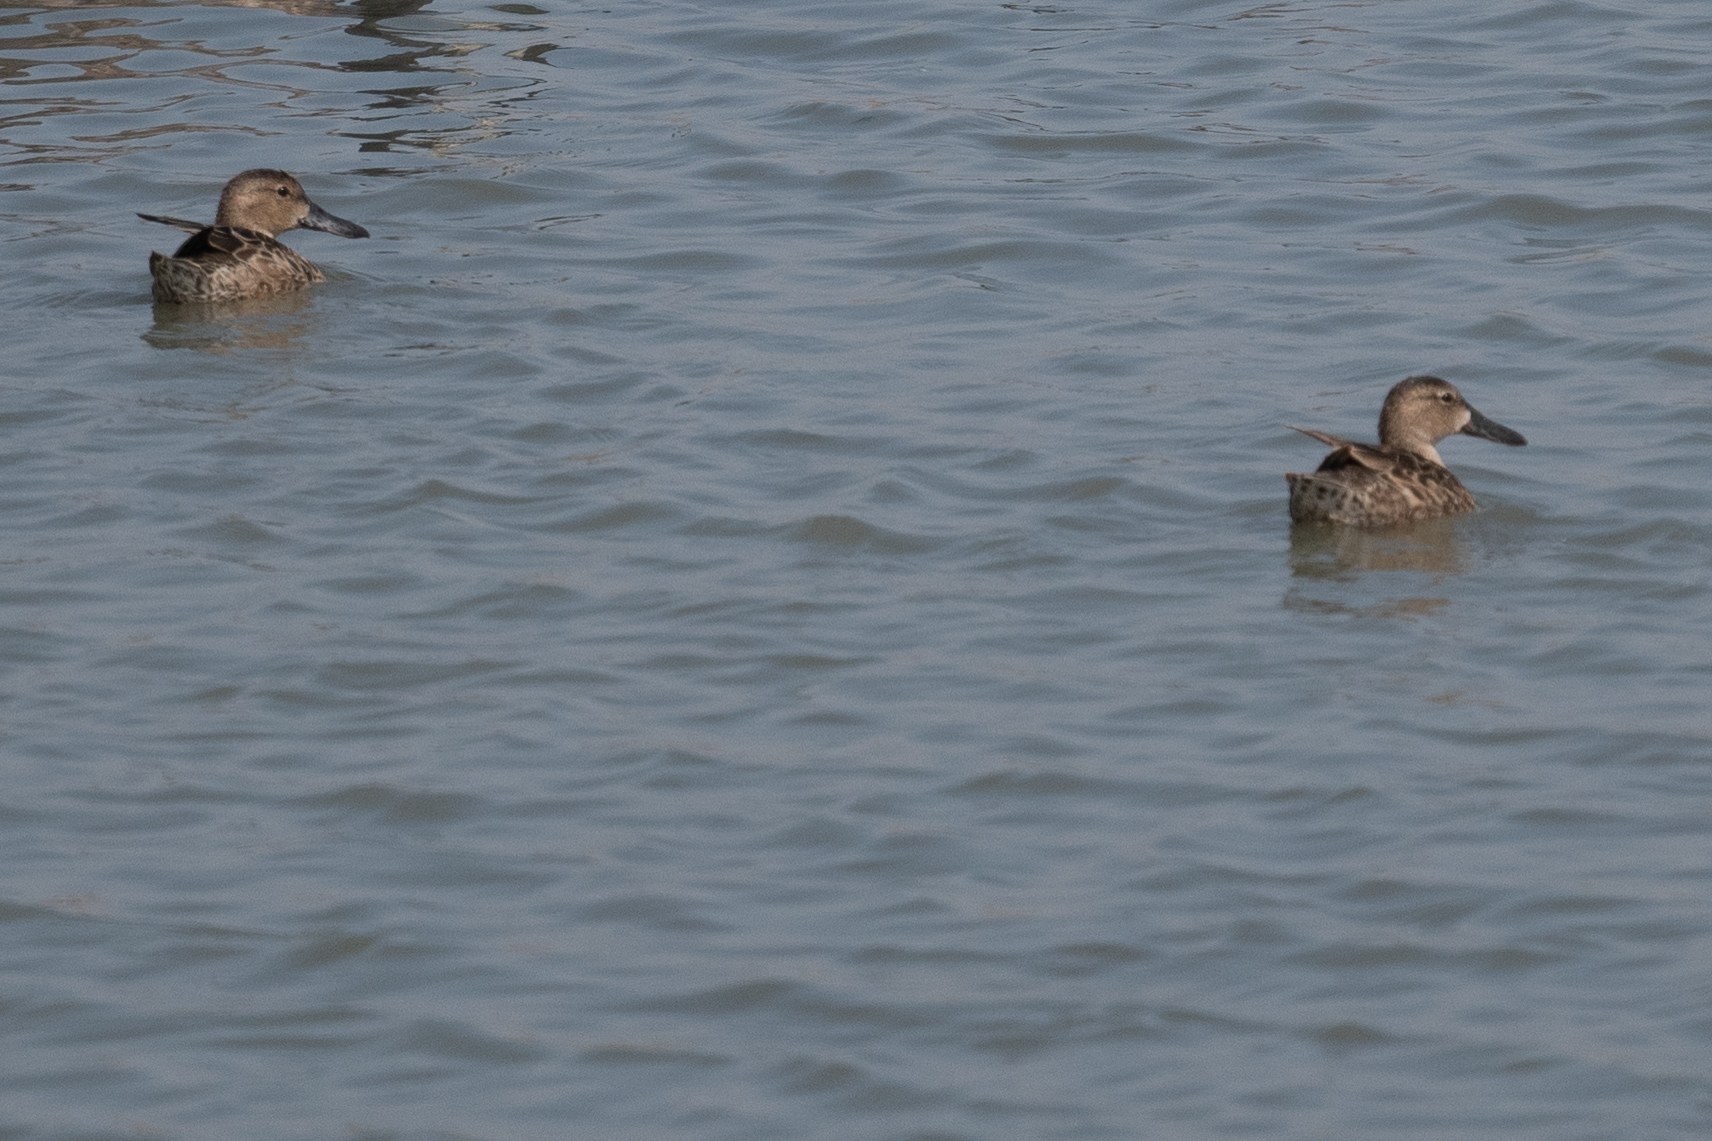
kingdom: Animalia
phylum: Chordata
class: Aves
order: Anseriformes
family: Anatidae
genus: Spatula
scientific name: Spatula cyanoptera
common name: Cinnamon teal
